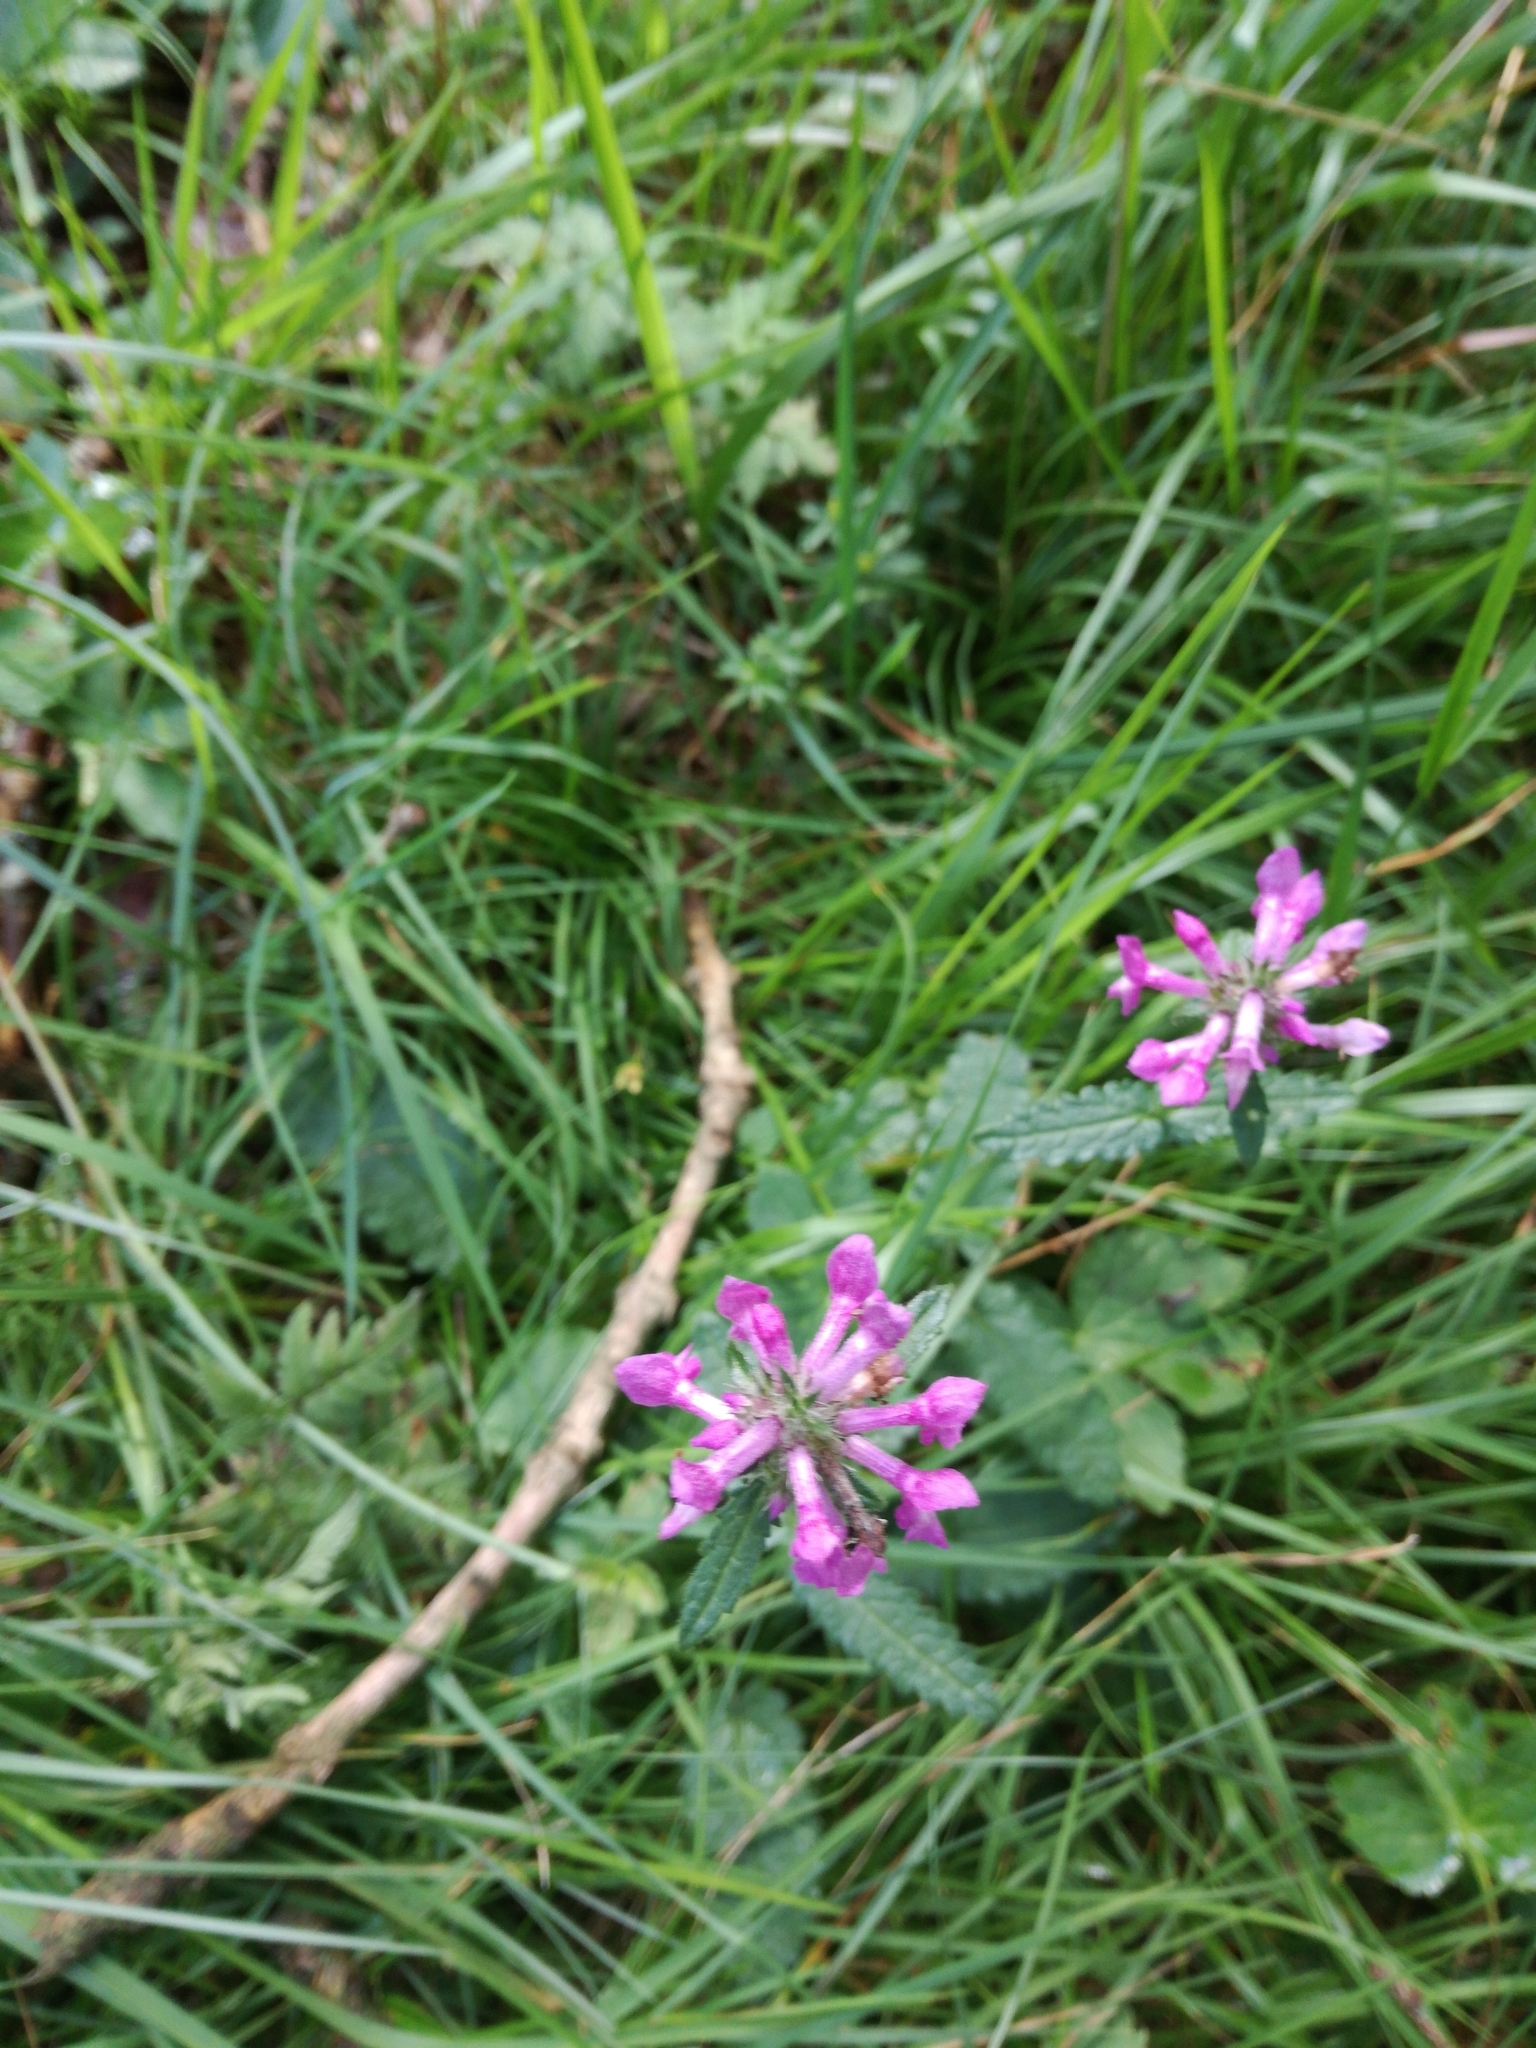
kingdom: Plantae
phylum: Tracheophyta
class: Magnoliopsida
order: Lamiales
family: Lamiaceae
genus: Betonica
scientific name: Betonica officinalis
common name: Bishop's-wort
